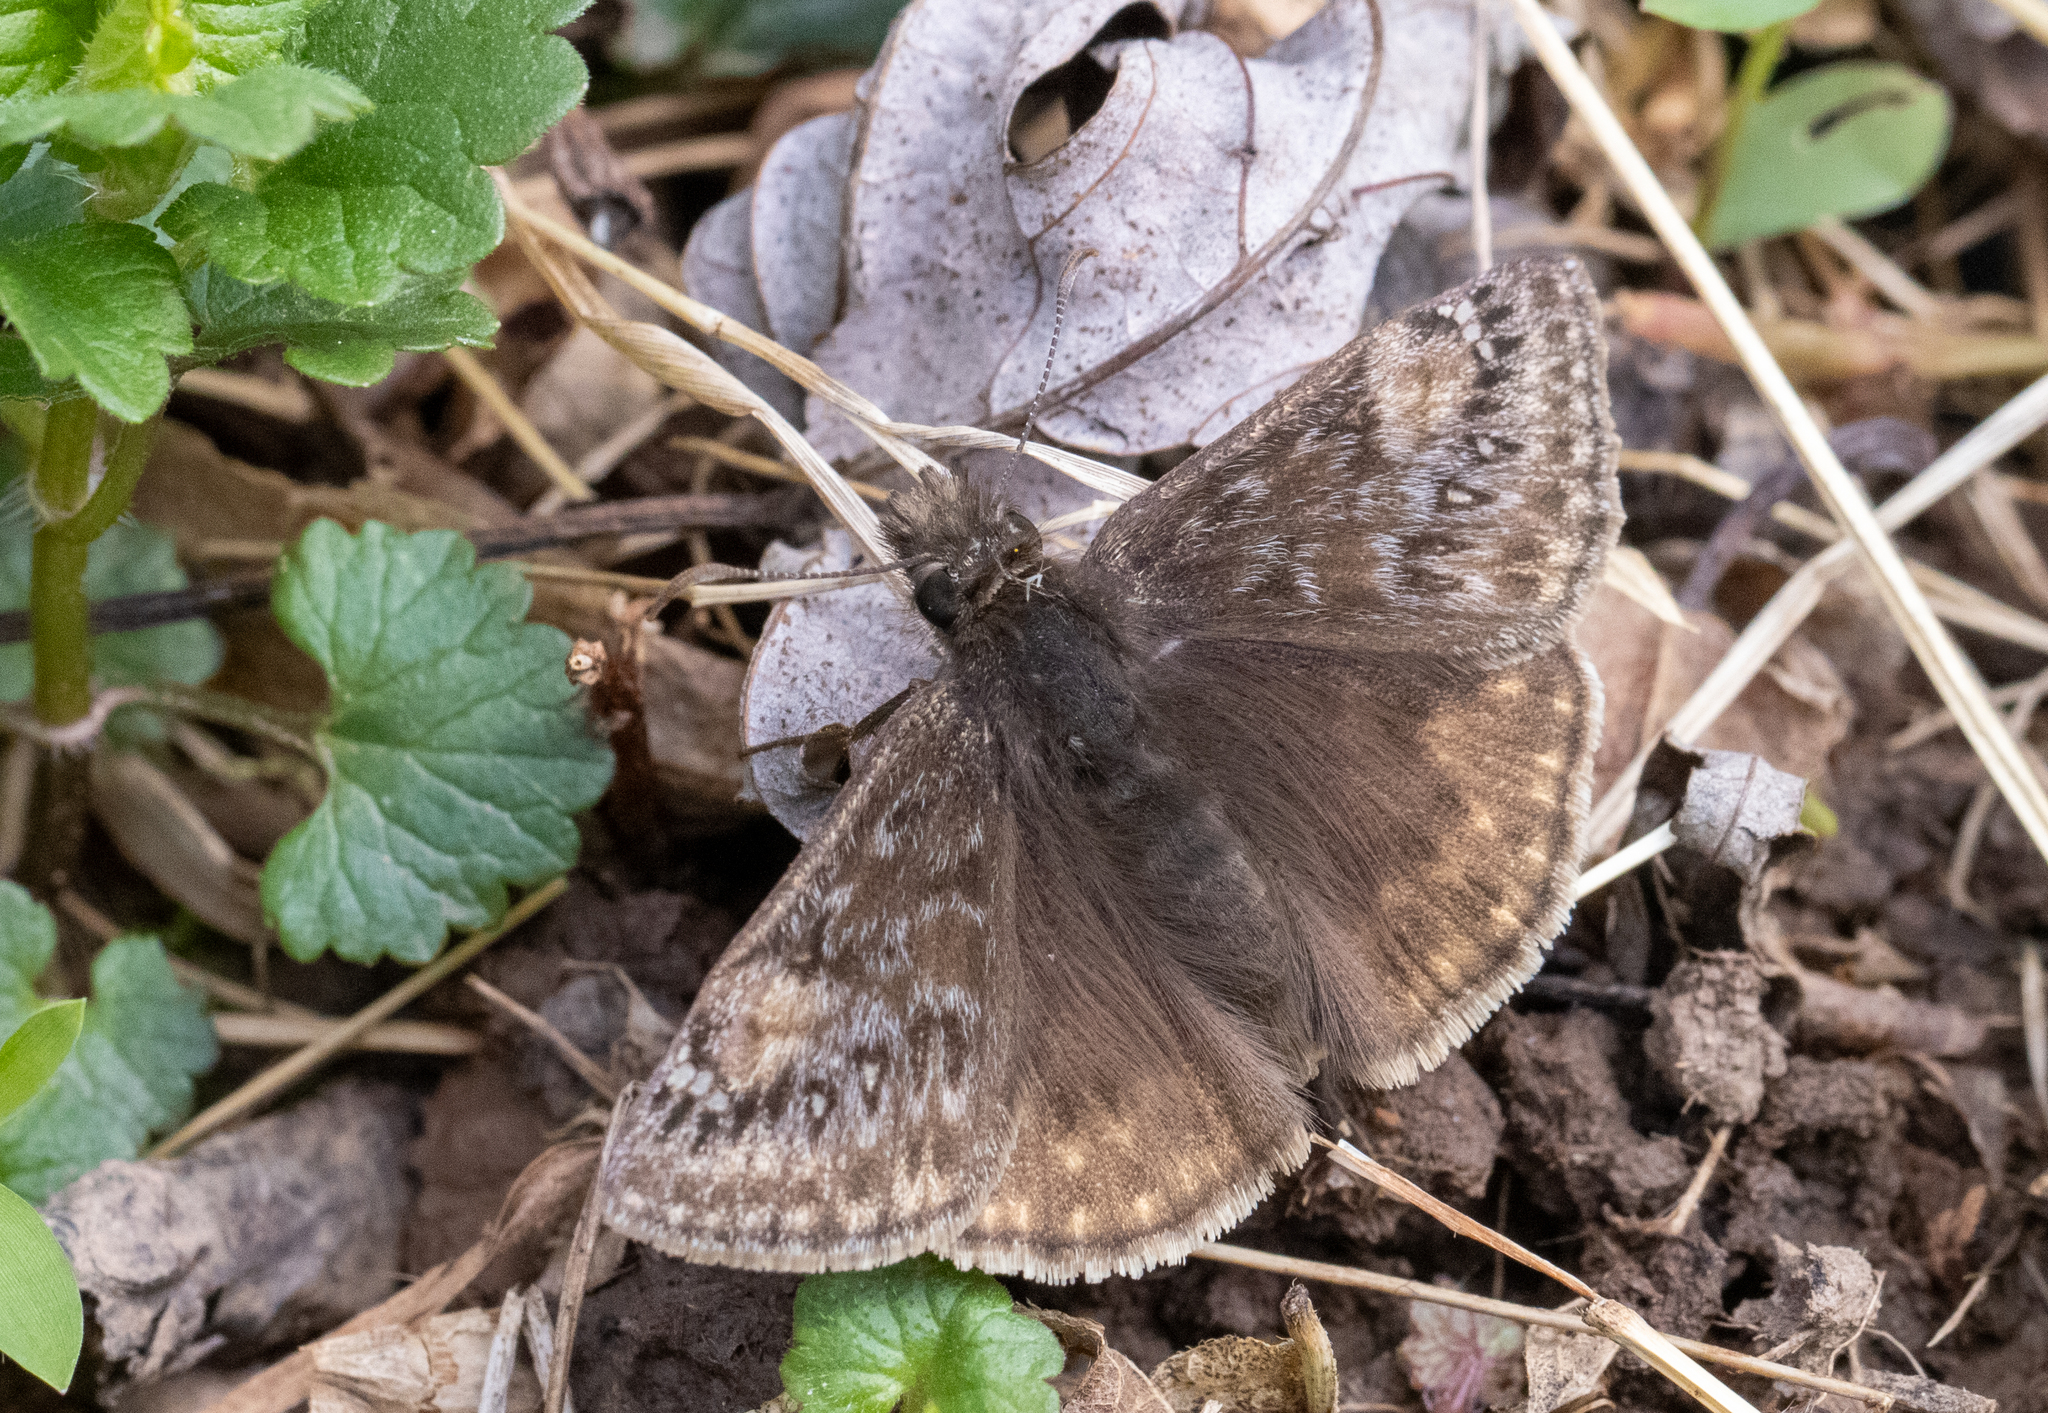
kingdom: Animalia
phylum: Arthropoda
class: Insecta
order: Lepidoptera
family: Hesperiidae
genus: Erynnis
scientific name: Erynnis juvenalis
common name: Juvenal's duskywing
